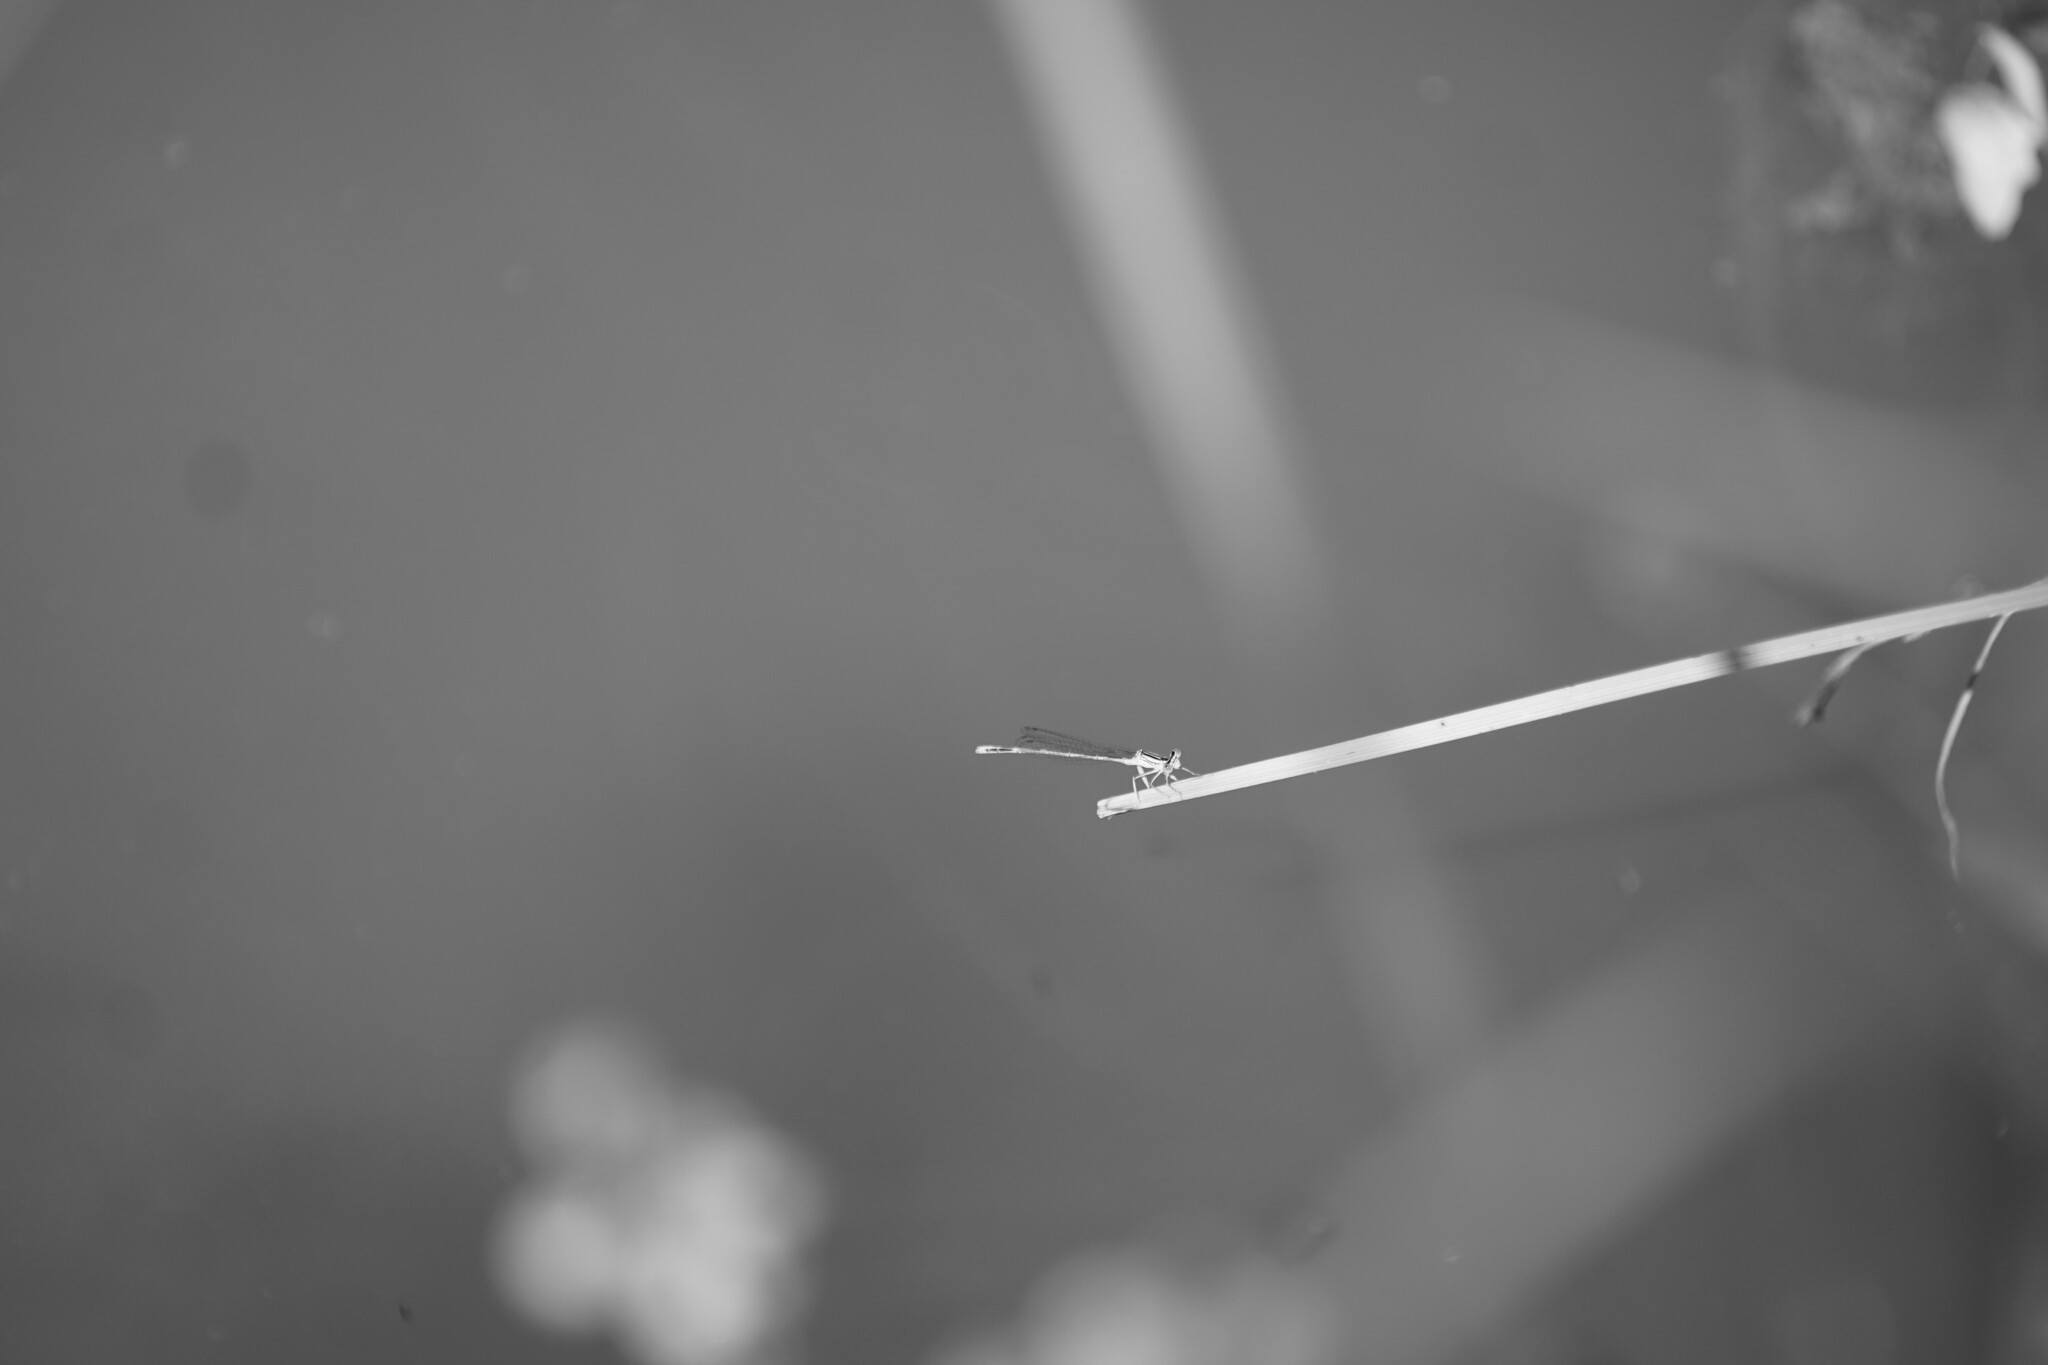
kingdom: Animalia
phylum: Arthropoda
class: Insecta
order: Odonata
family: Platycnemididae
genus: Platycnemis
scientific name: Platycnemis pennipes
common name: White-legged damselfly
